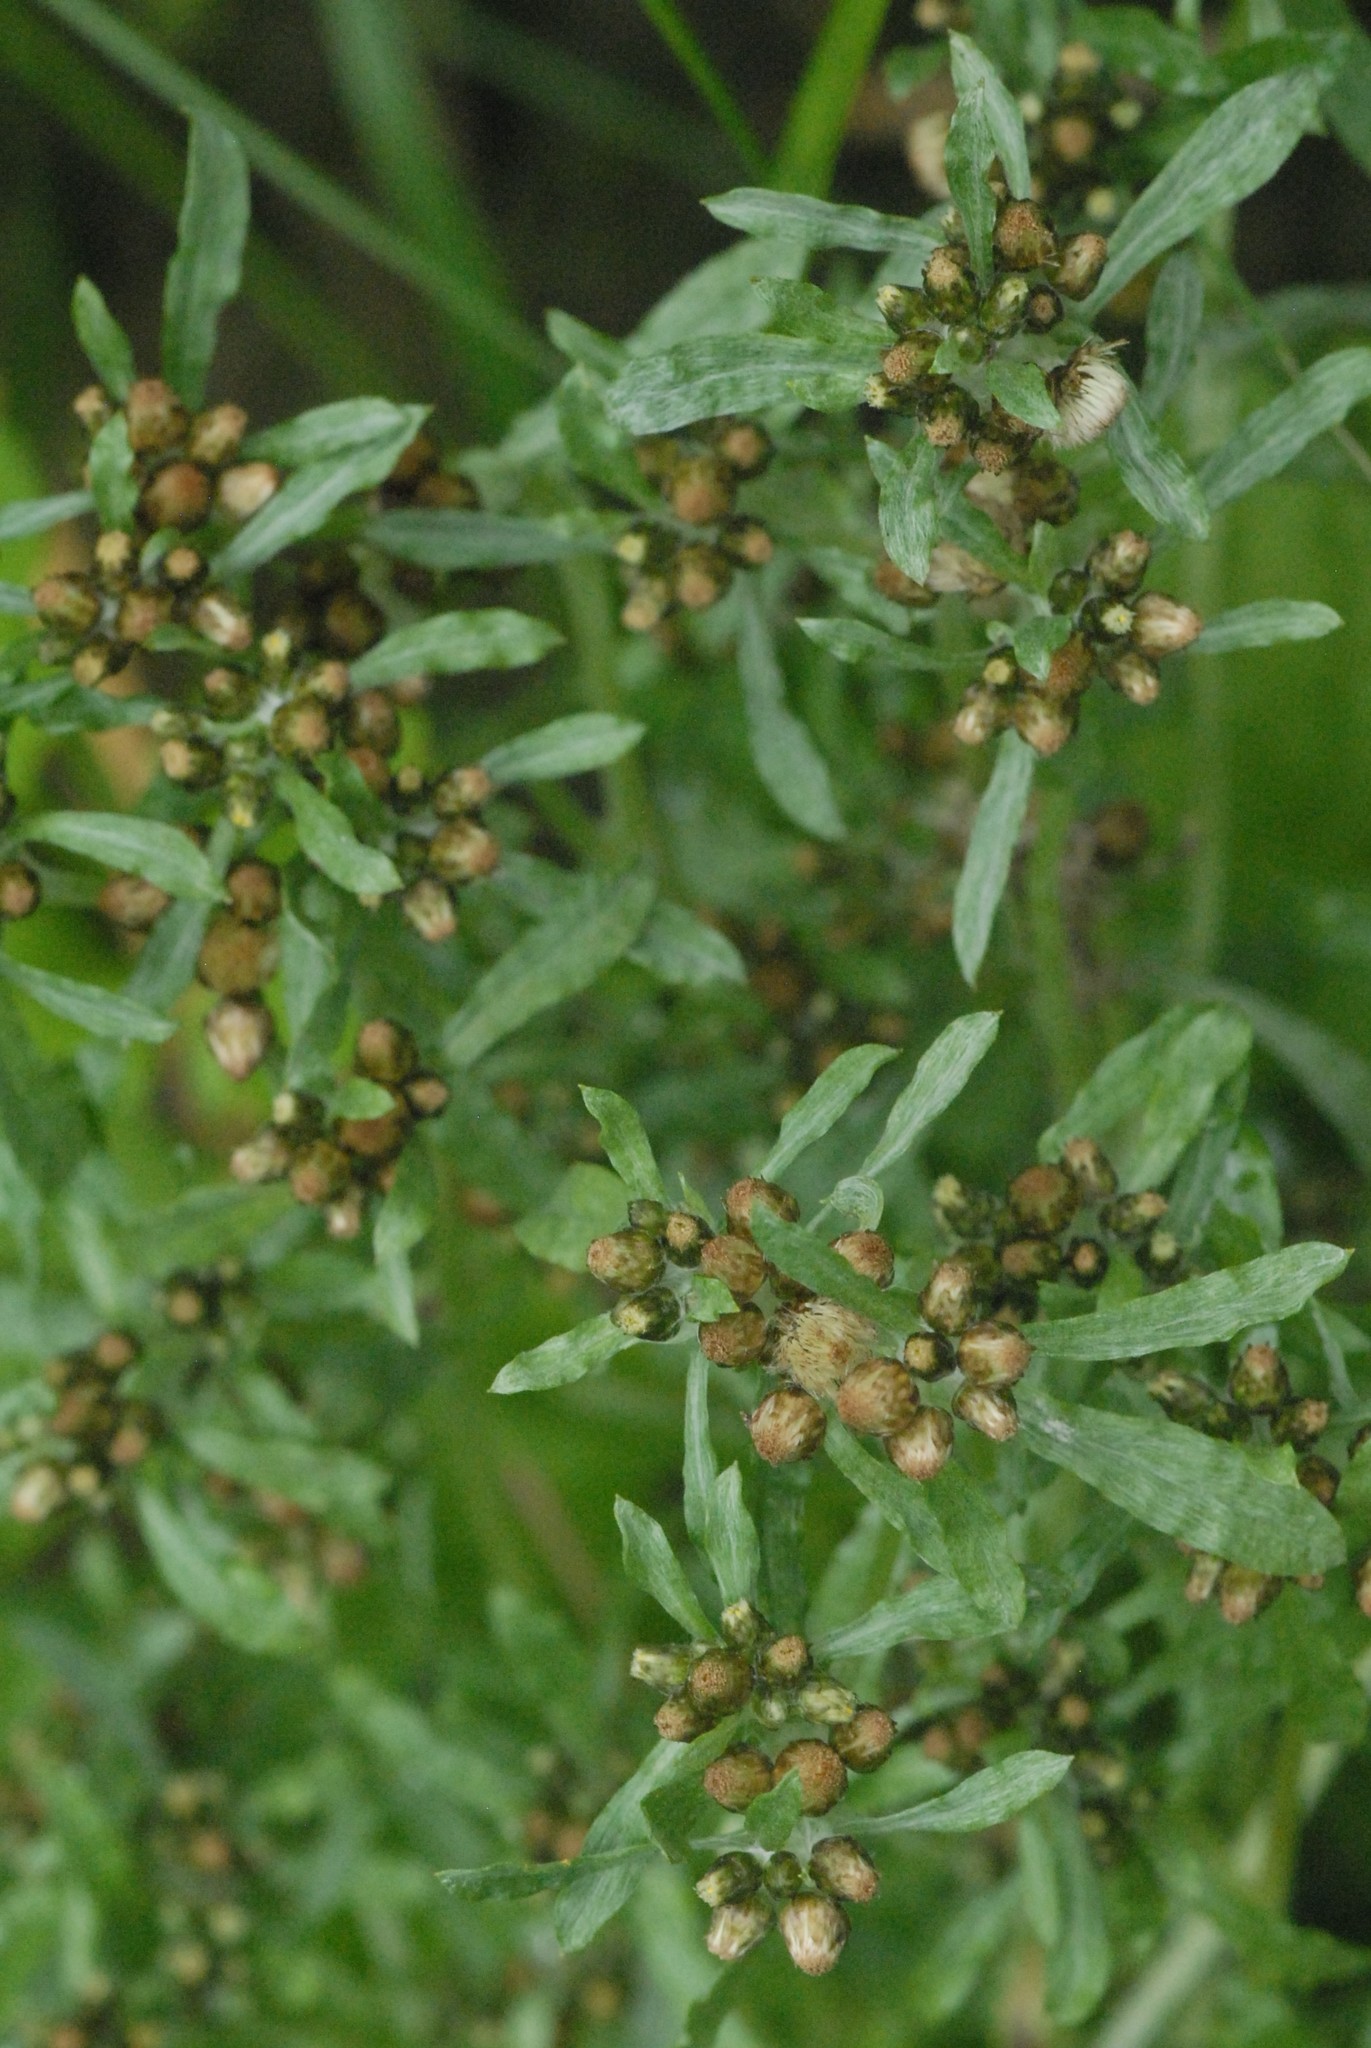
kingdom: Plantae
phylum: Tracheophyta
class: Magnoliopsida
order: Asterales
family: Asteraceae
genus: Gnaphalium
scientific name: Gnaphalium uliginosum
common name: Marsh cudweed
